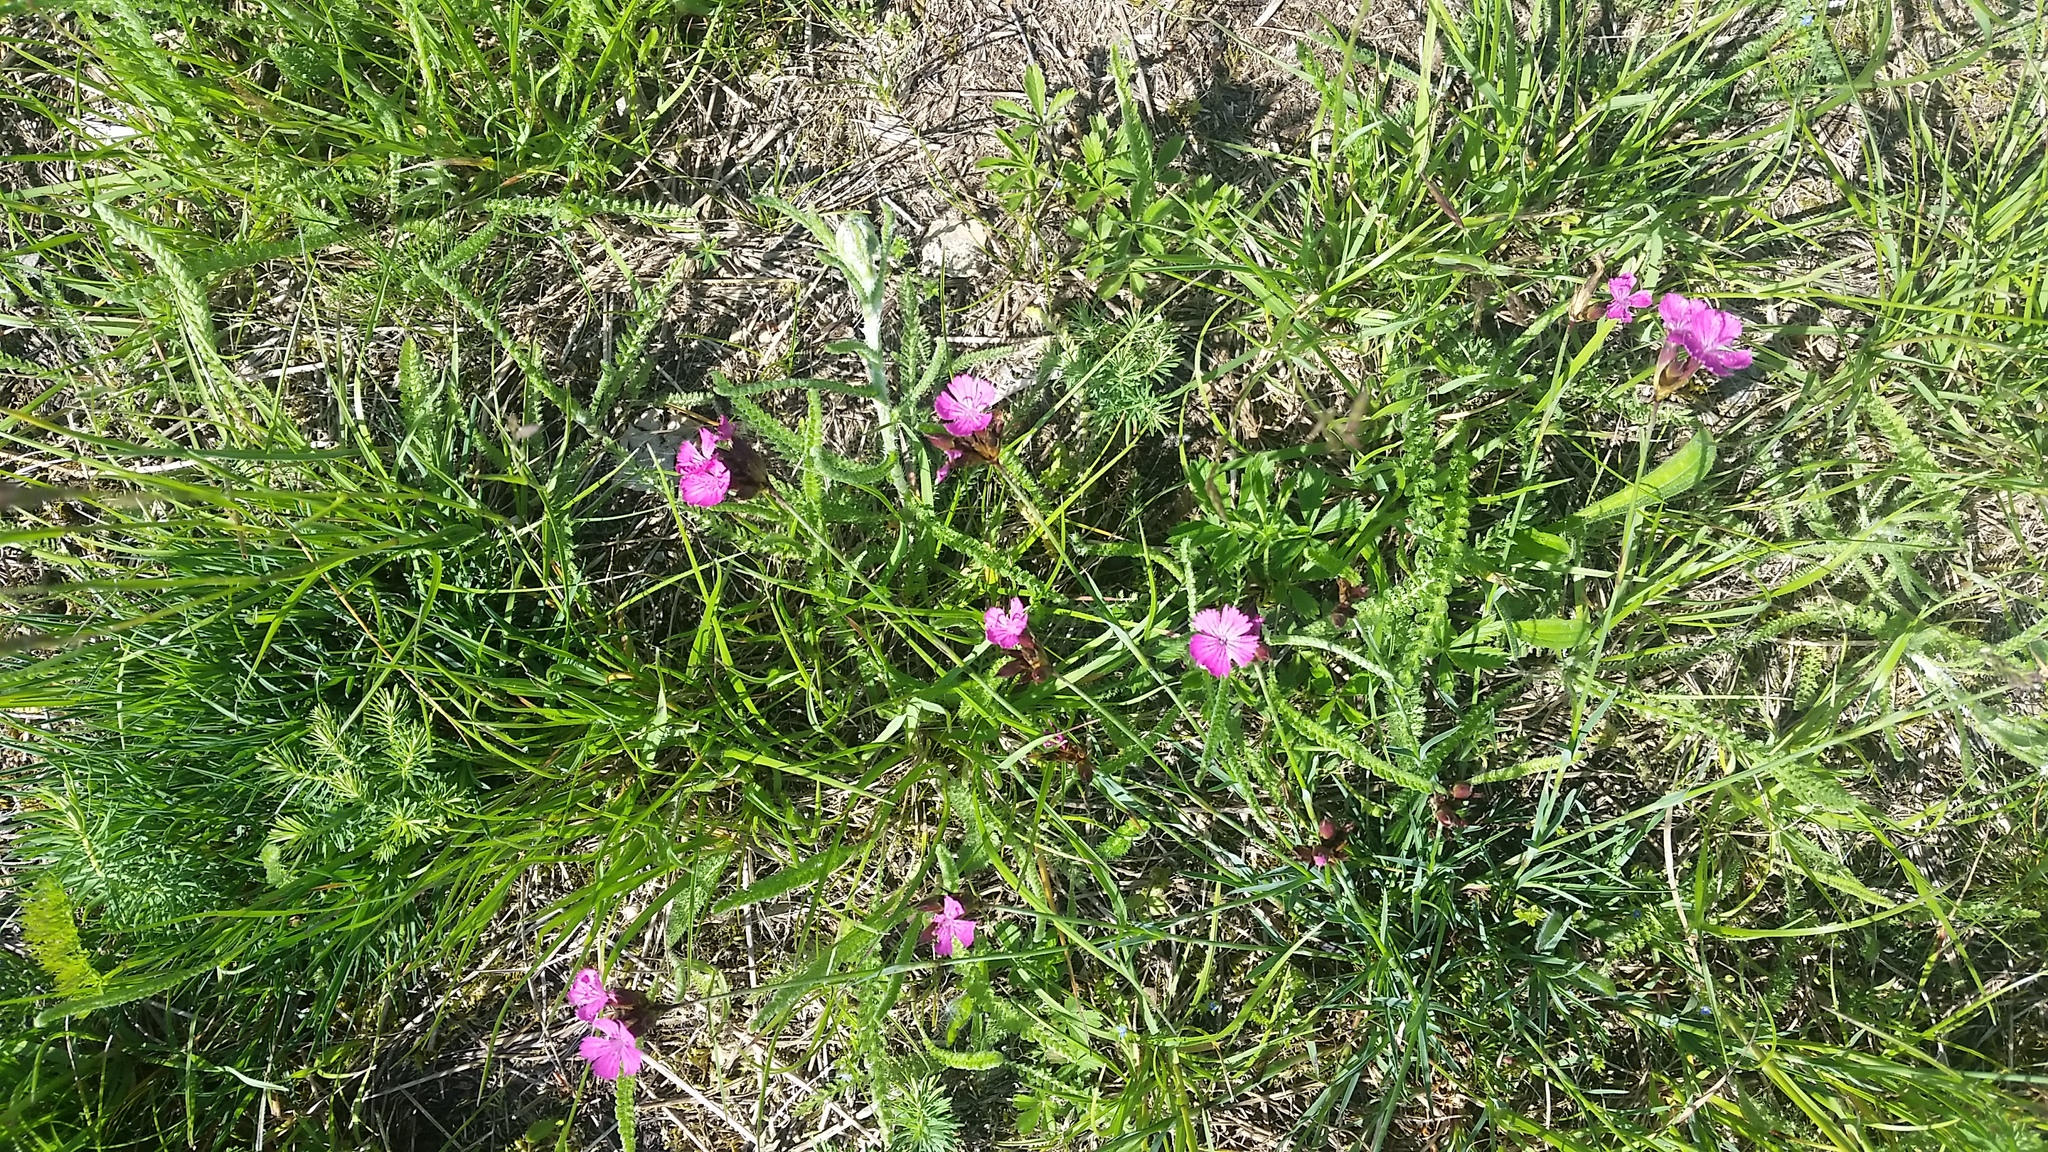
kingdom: Plantae
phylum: Tracheophyta
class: Magnoliopsida
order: Caryophyllales
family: Caryophyllaceae
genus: Dianthus
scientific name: Dianthus carthusianorum
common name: Carthusian pink
